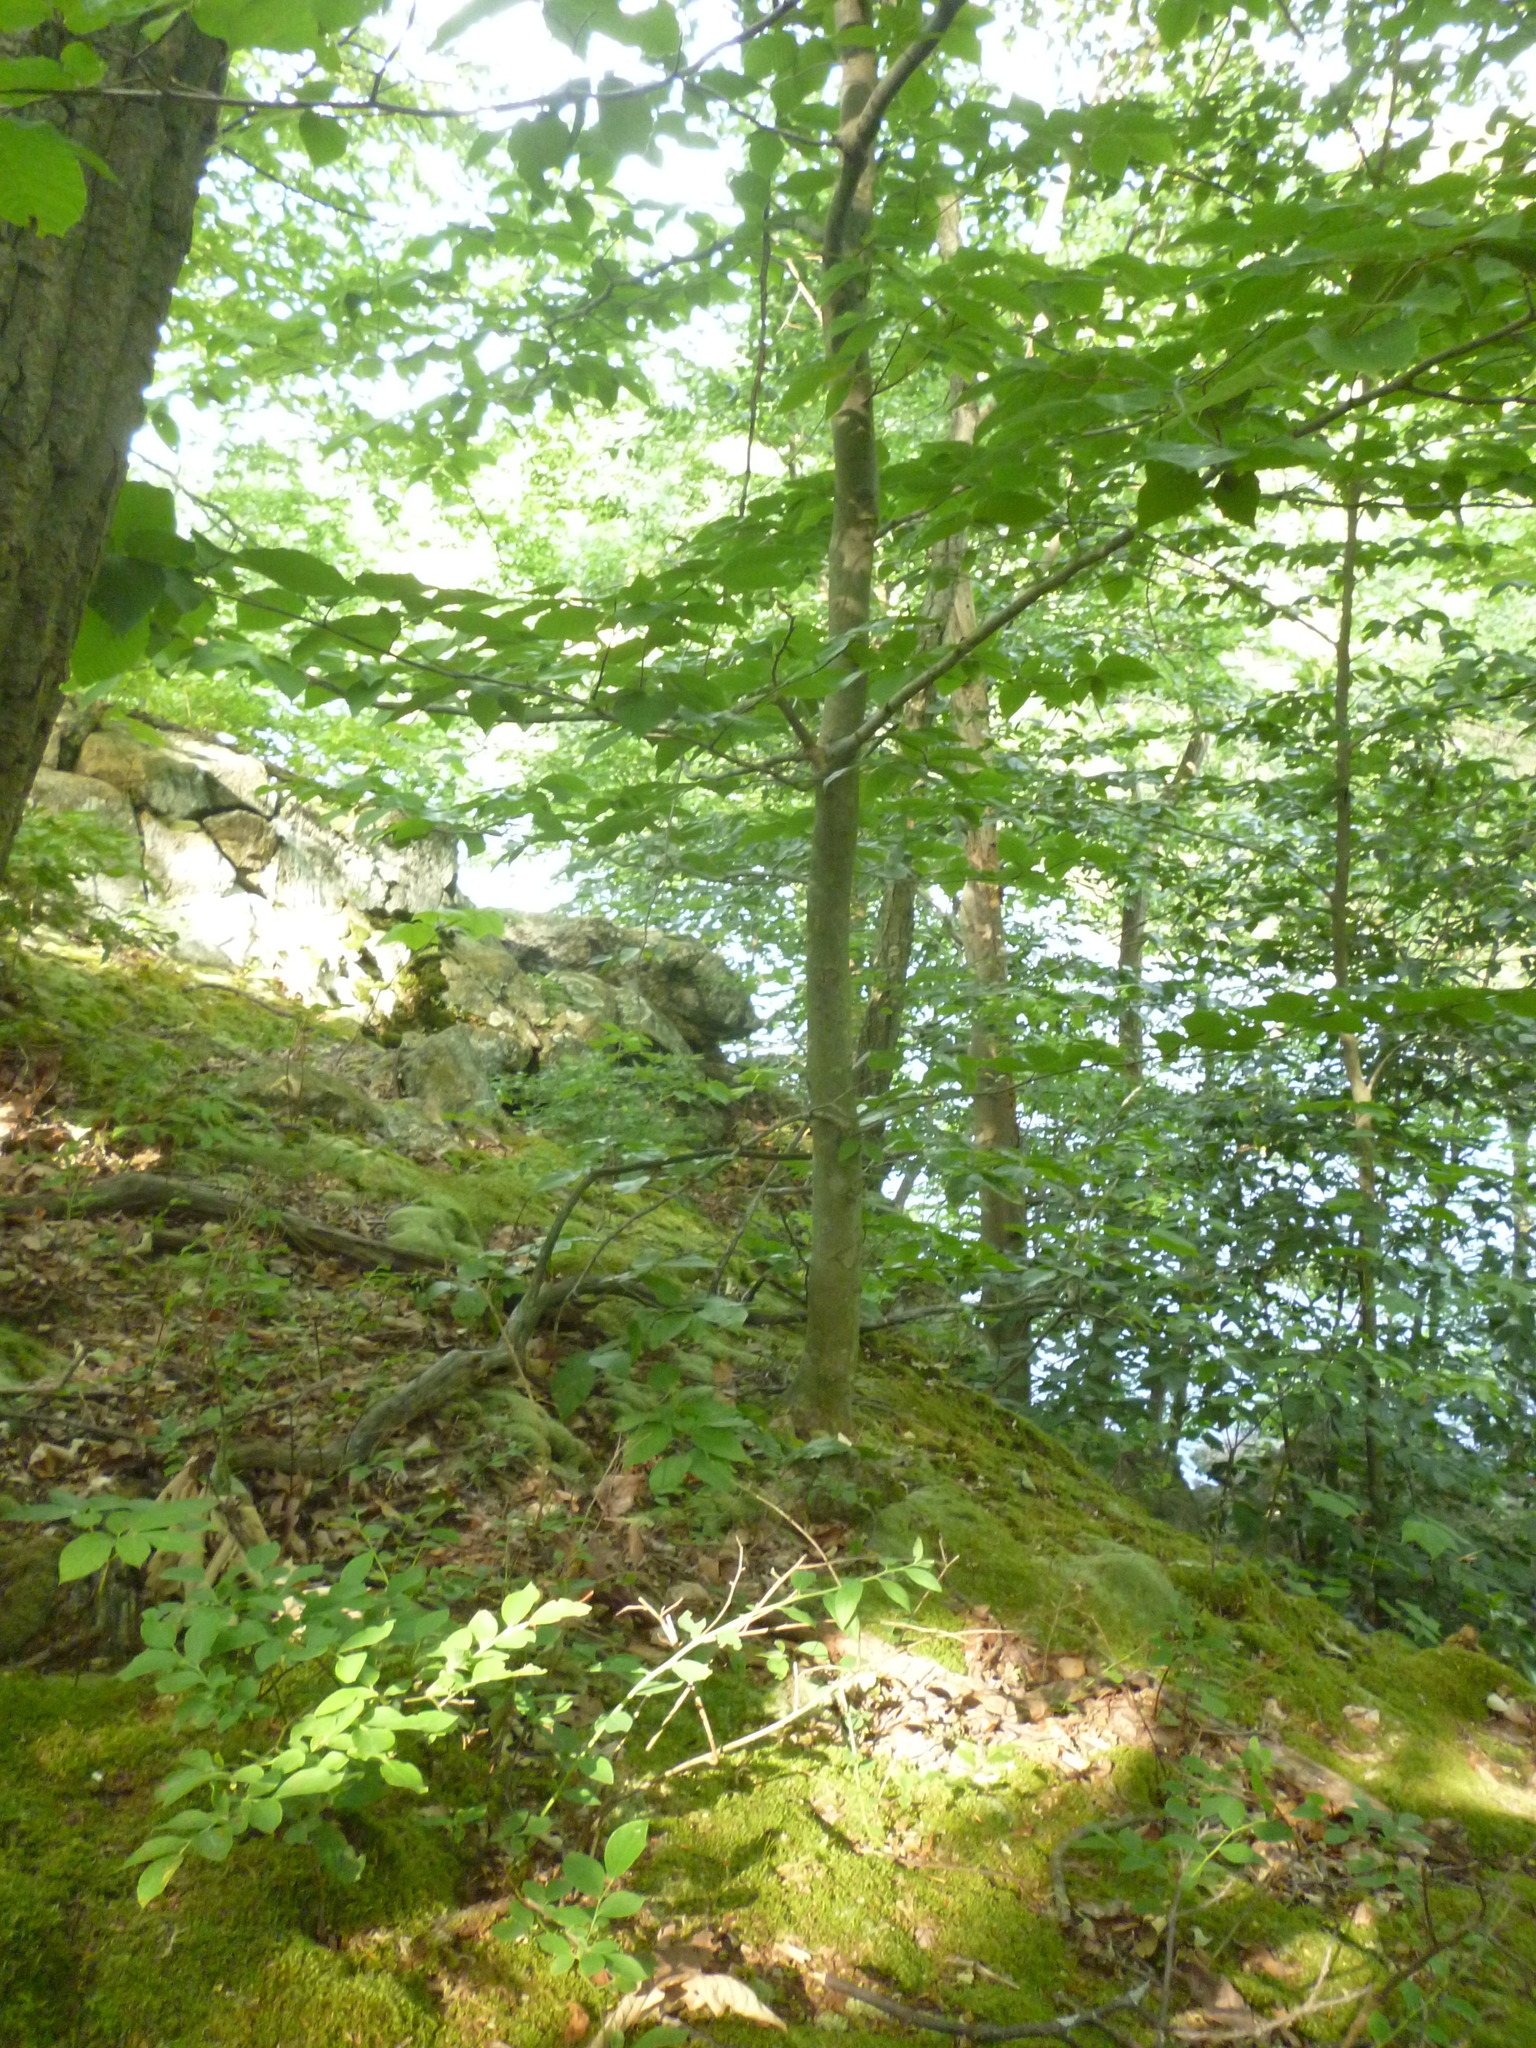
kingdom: Plantae
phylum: Tracheophyta
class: Magnoliopsida
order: Fagales
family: Fagaceae
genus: Fagus
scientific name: Fagus grandifolia
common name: American beech
